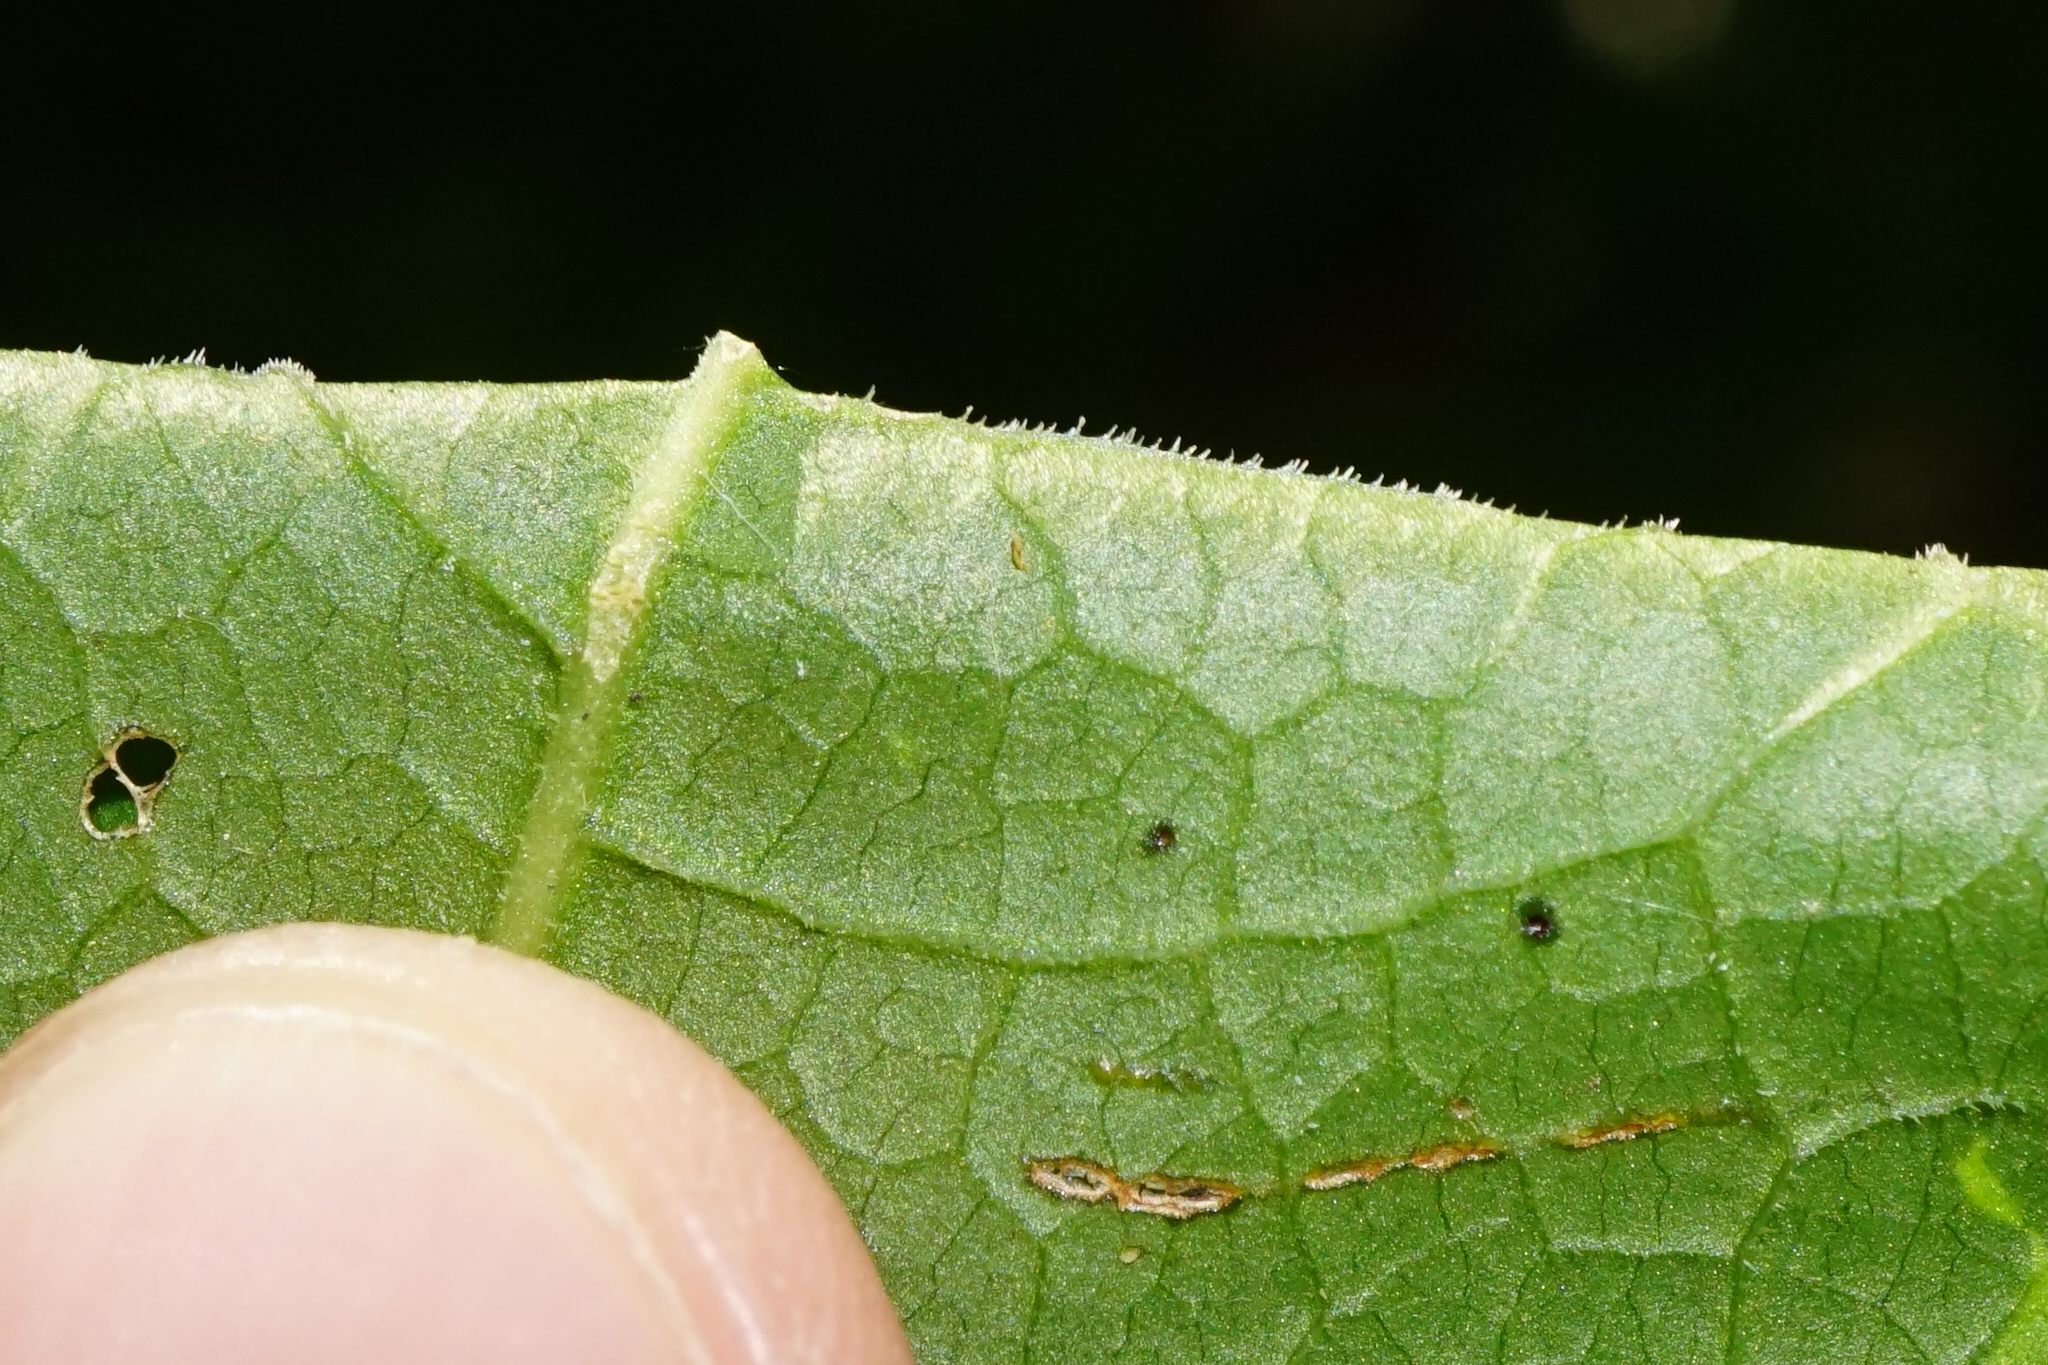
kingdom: Plantae
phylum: Tracheophyta
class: Magnoliopsida
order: Caryophyllales
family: Polygonaceae
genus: Reynoutria
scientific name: Reynoutria bohemica
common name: Bohemian knotweed
